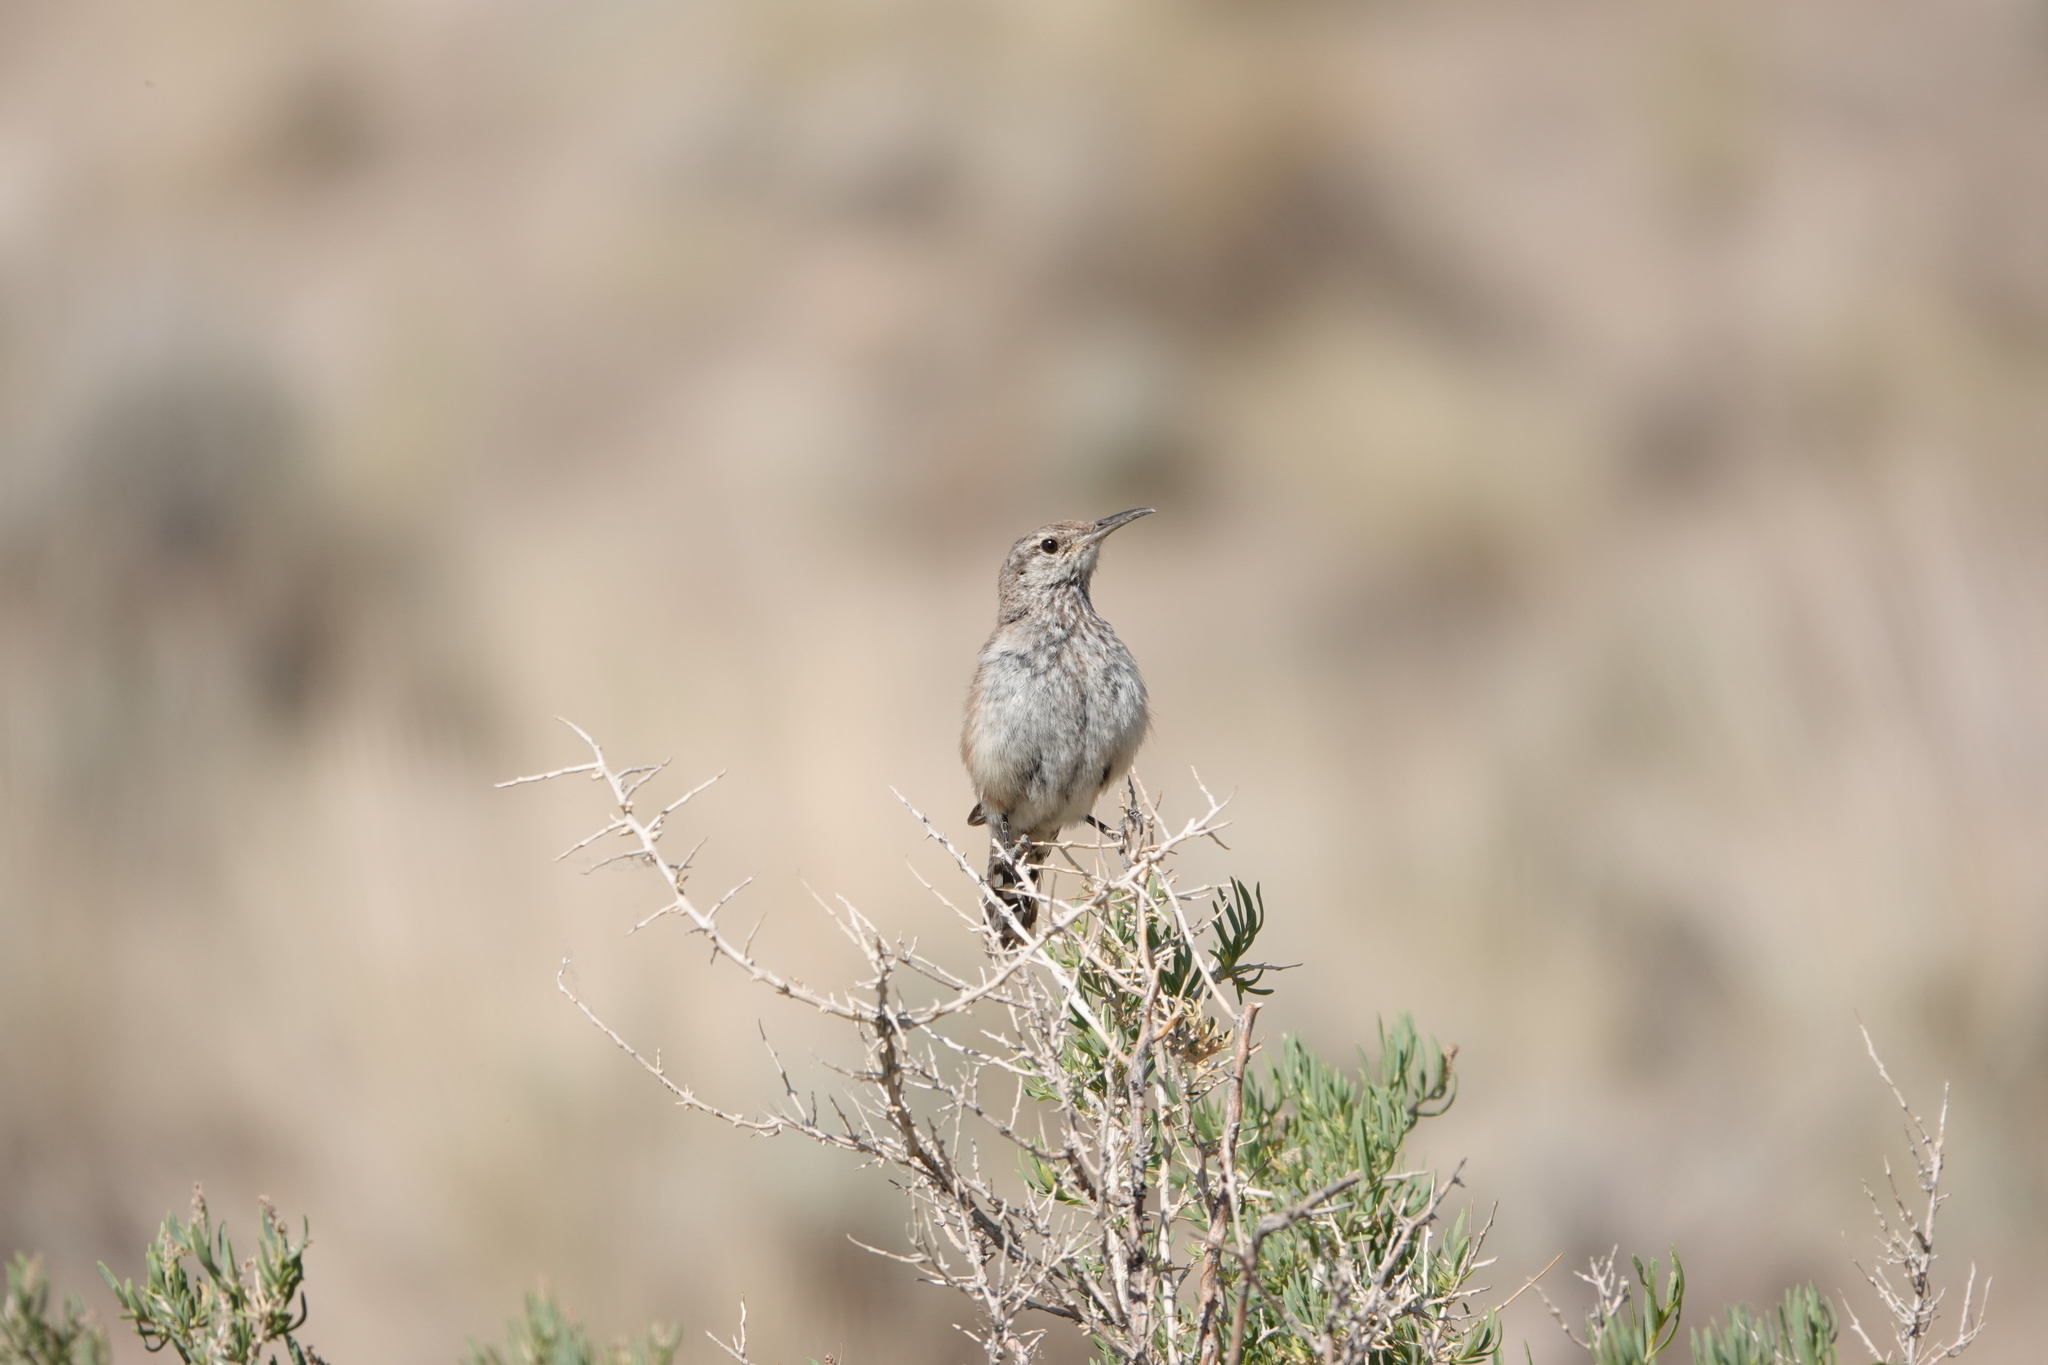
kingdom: Animalia
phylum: Chordata
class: Aves
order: Passeriformes
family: Troglodytidae
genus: Salpinctes
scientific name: Salpinctes obsoletus
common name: Rock wren
